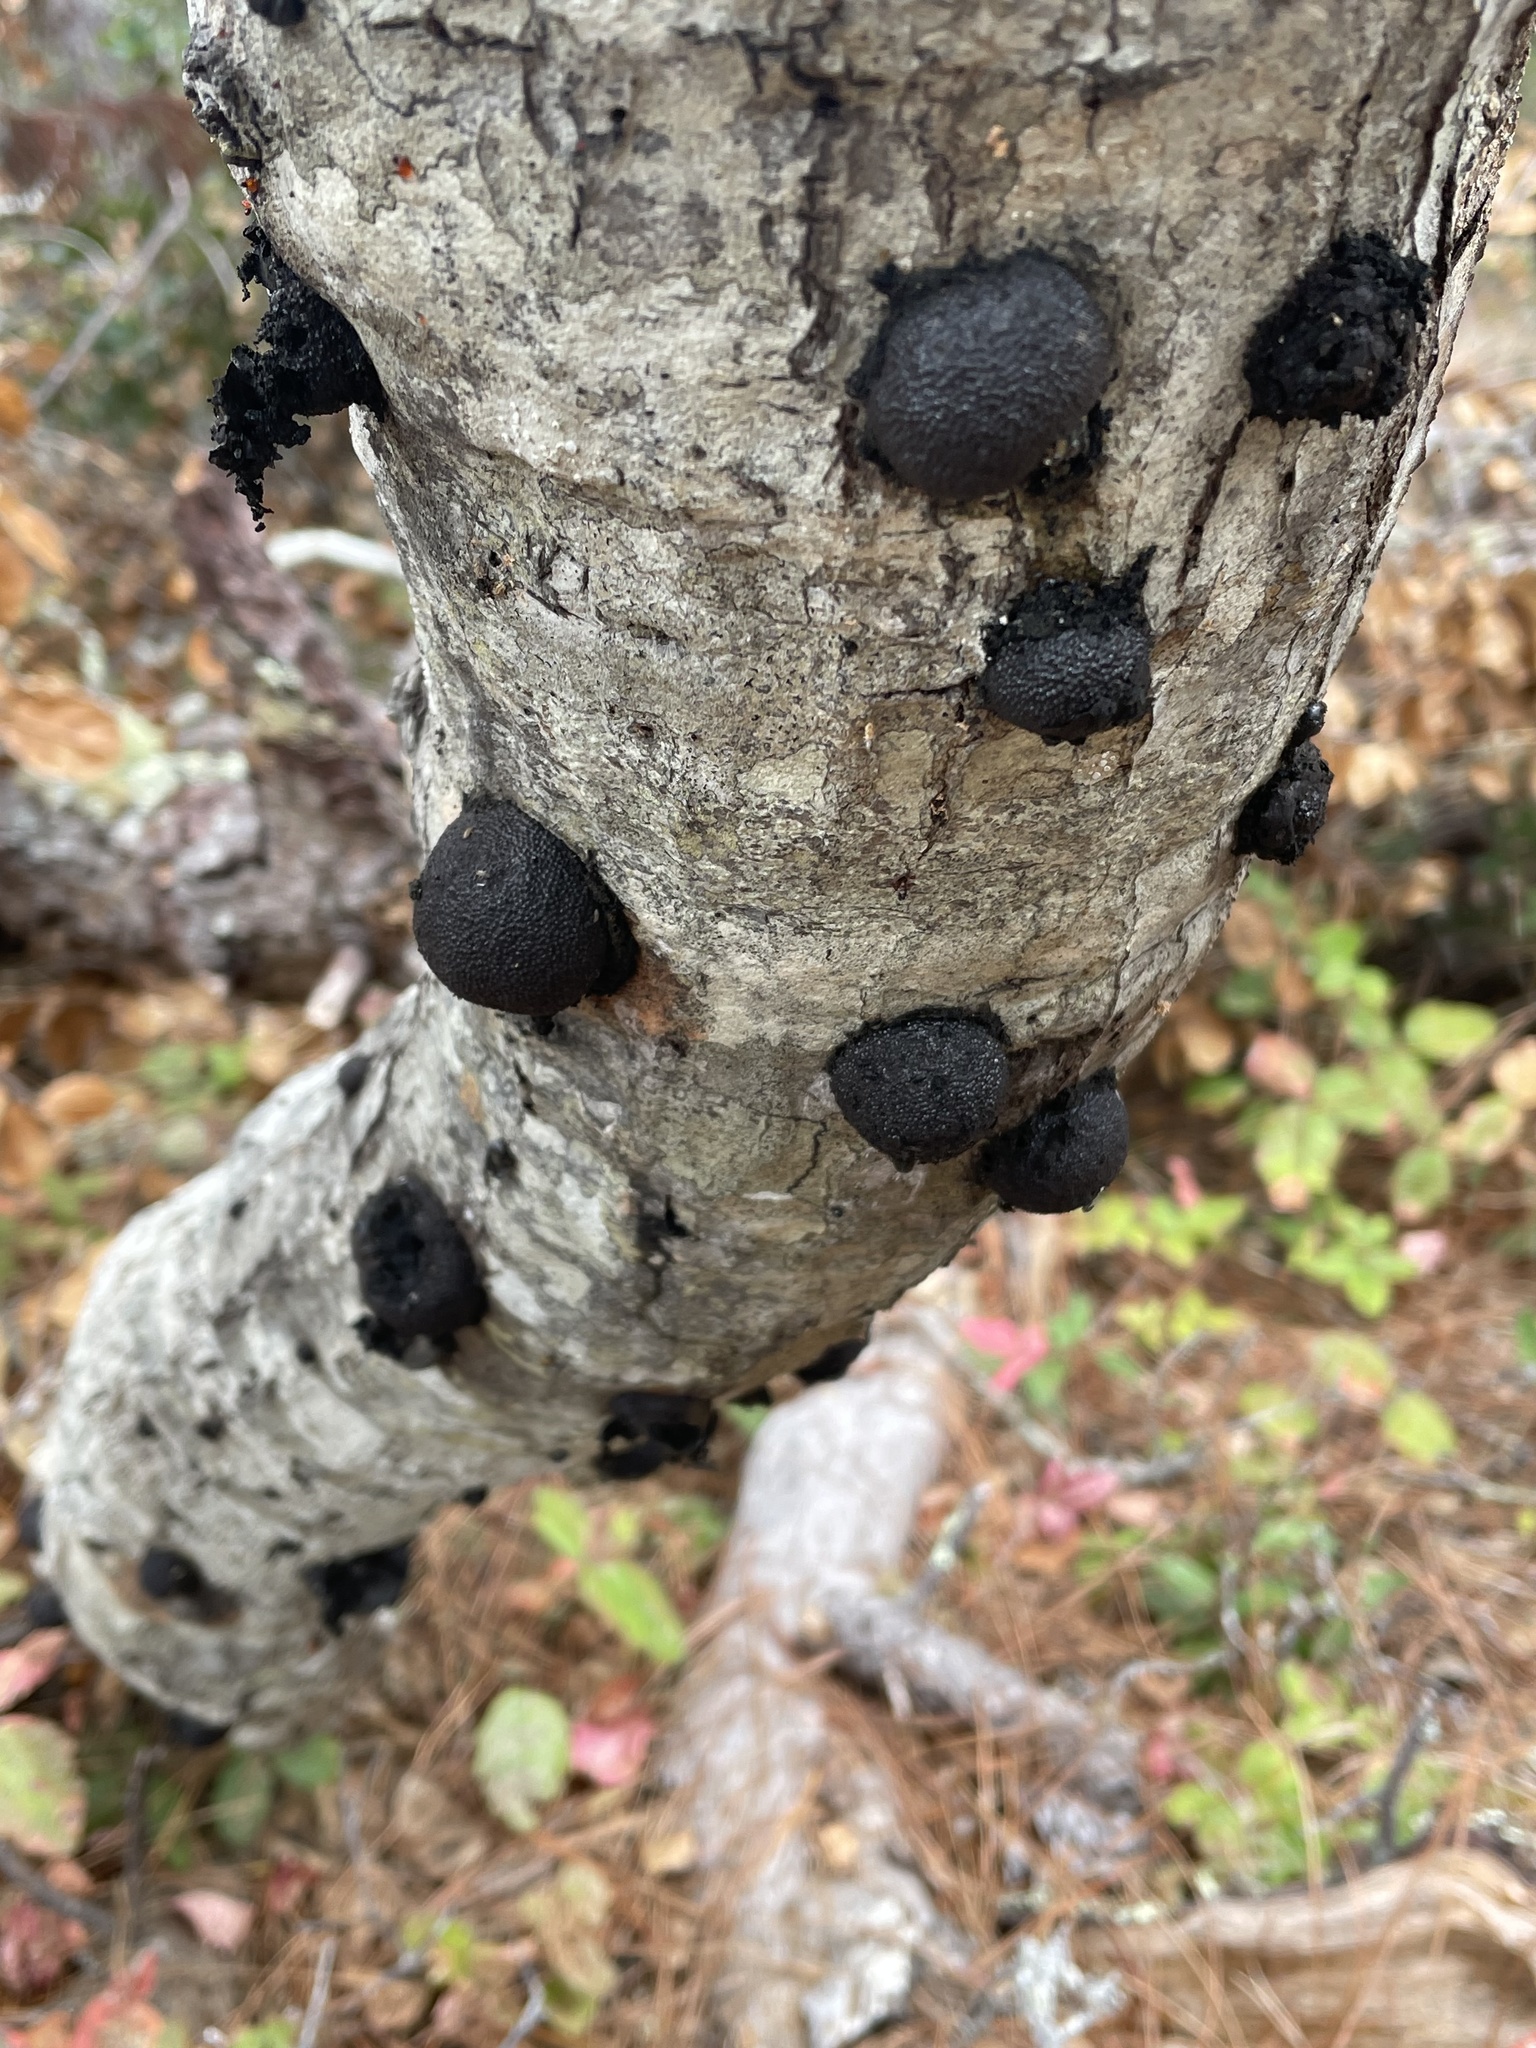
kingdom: Fungi
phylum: Ascomycota
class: Sordariomycetes
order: Xylariales
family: Hypoxylaceae
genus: Annulohypoxylon
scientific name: Annulohypoxylon thouarsianum
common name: Cramp balls
